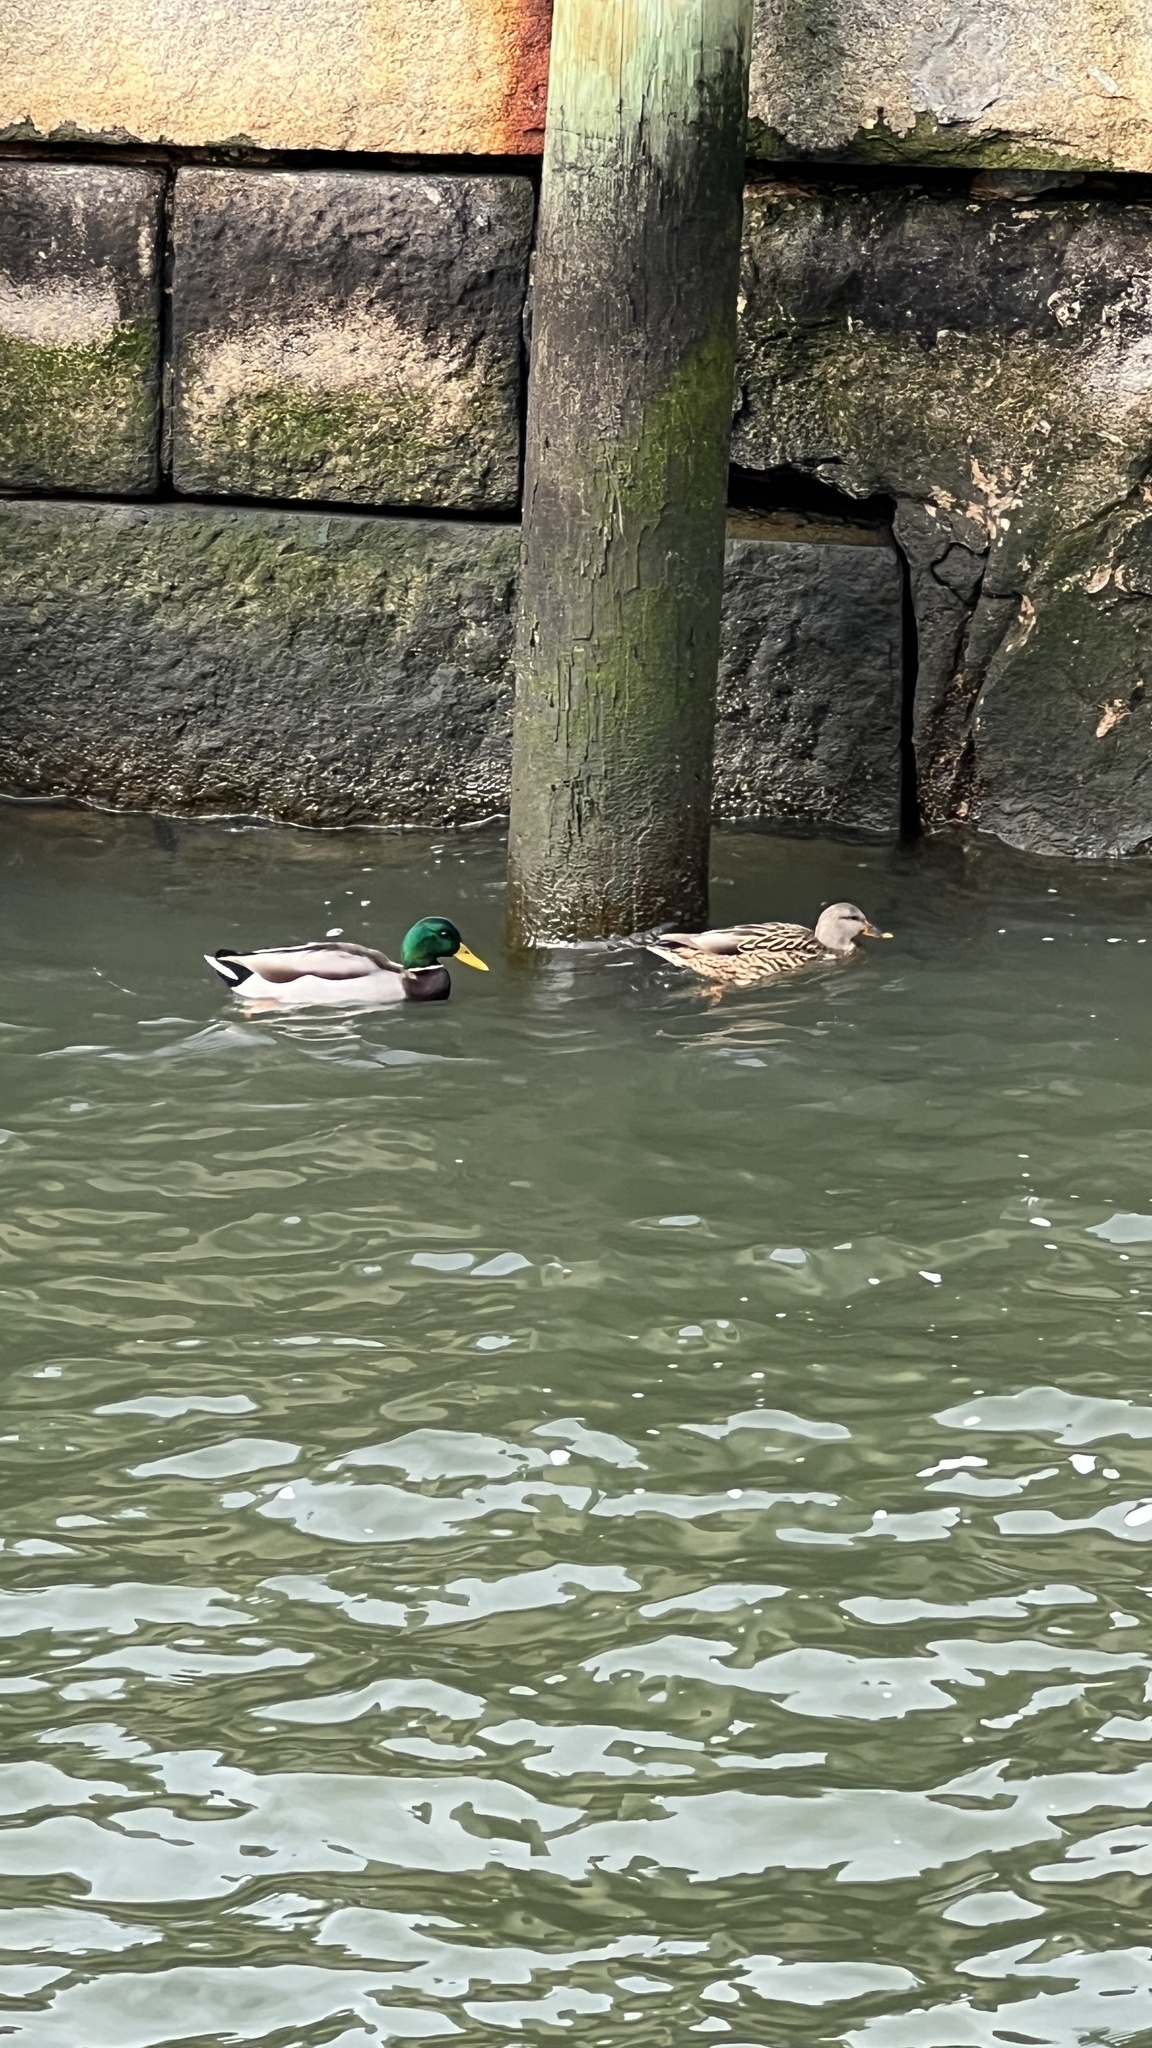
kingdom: Animalia
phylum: Chordata
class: Aves
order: Anseriformes
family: Anatidae
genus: Anas
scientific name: Anas platyrhynchos
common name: Mallard
